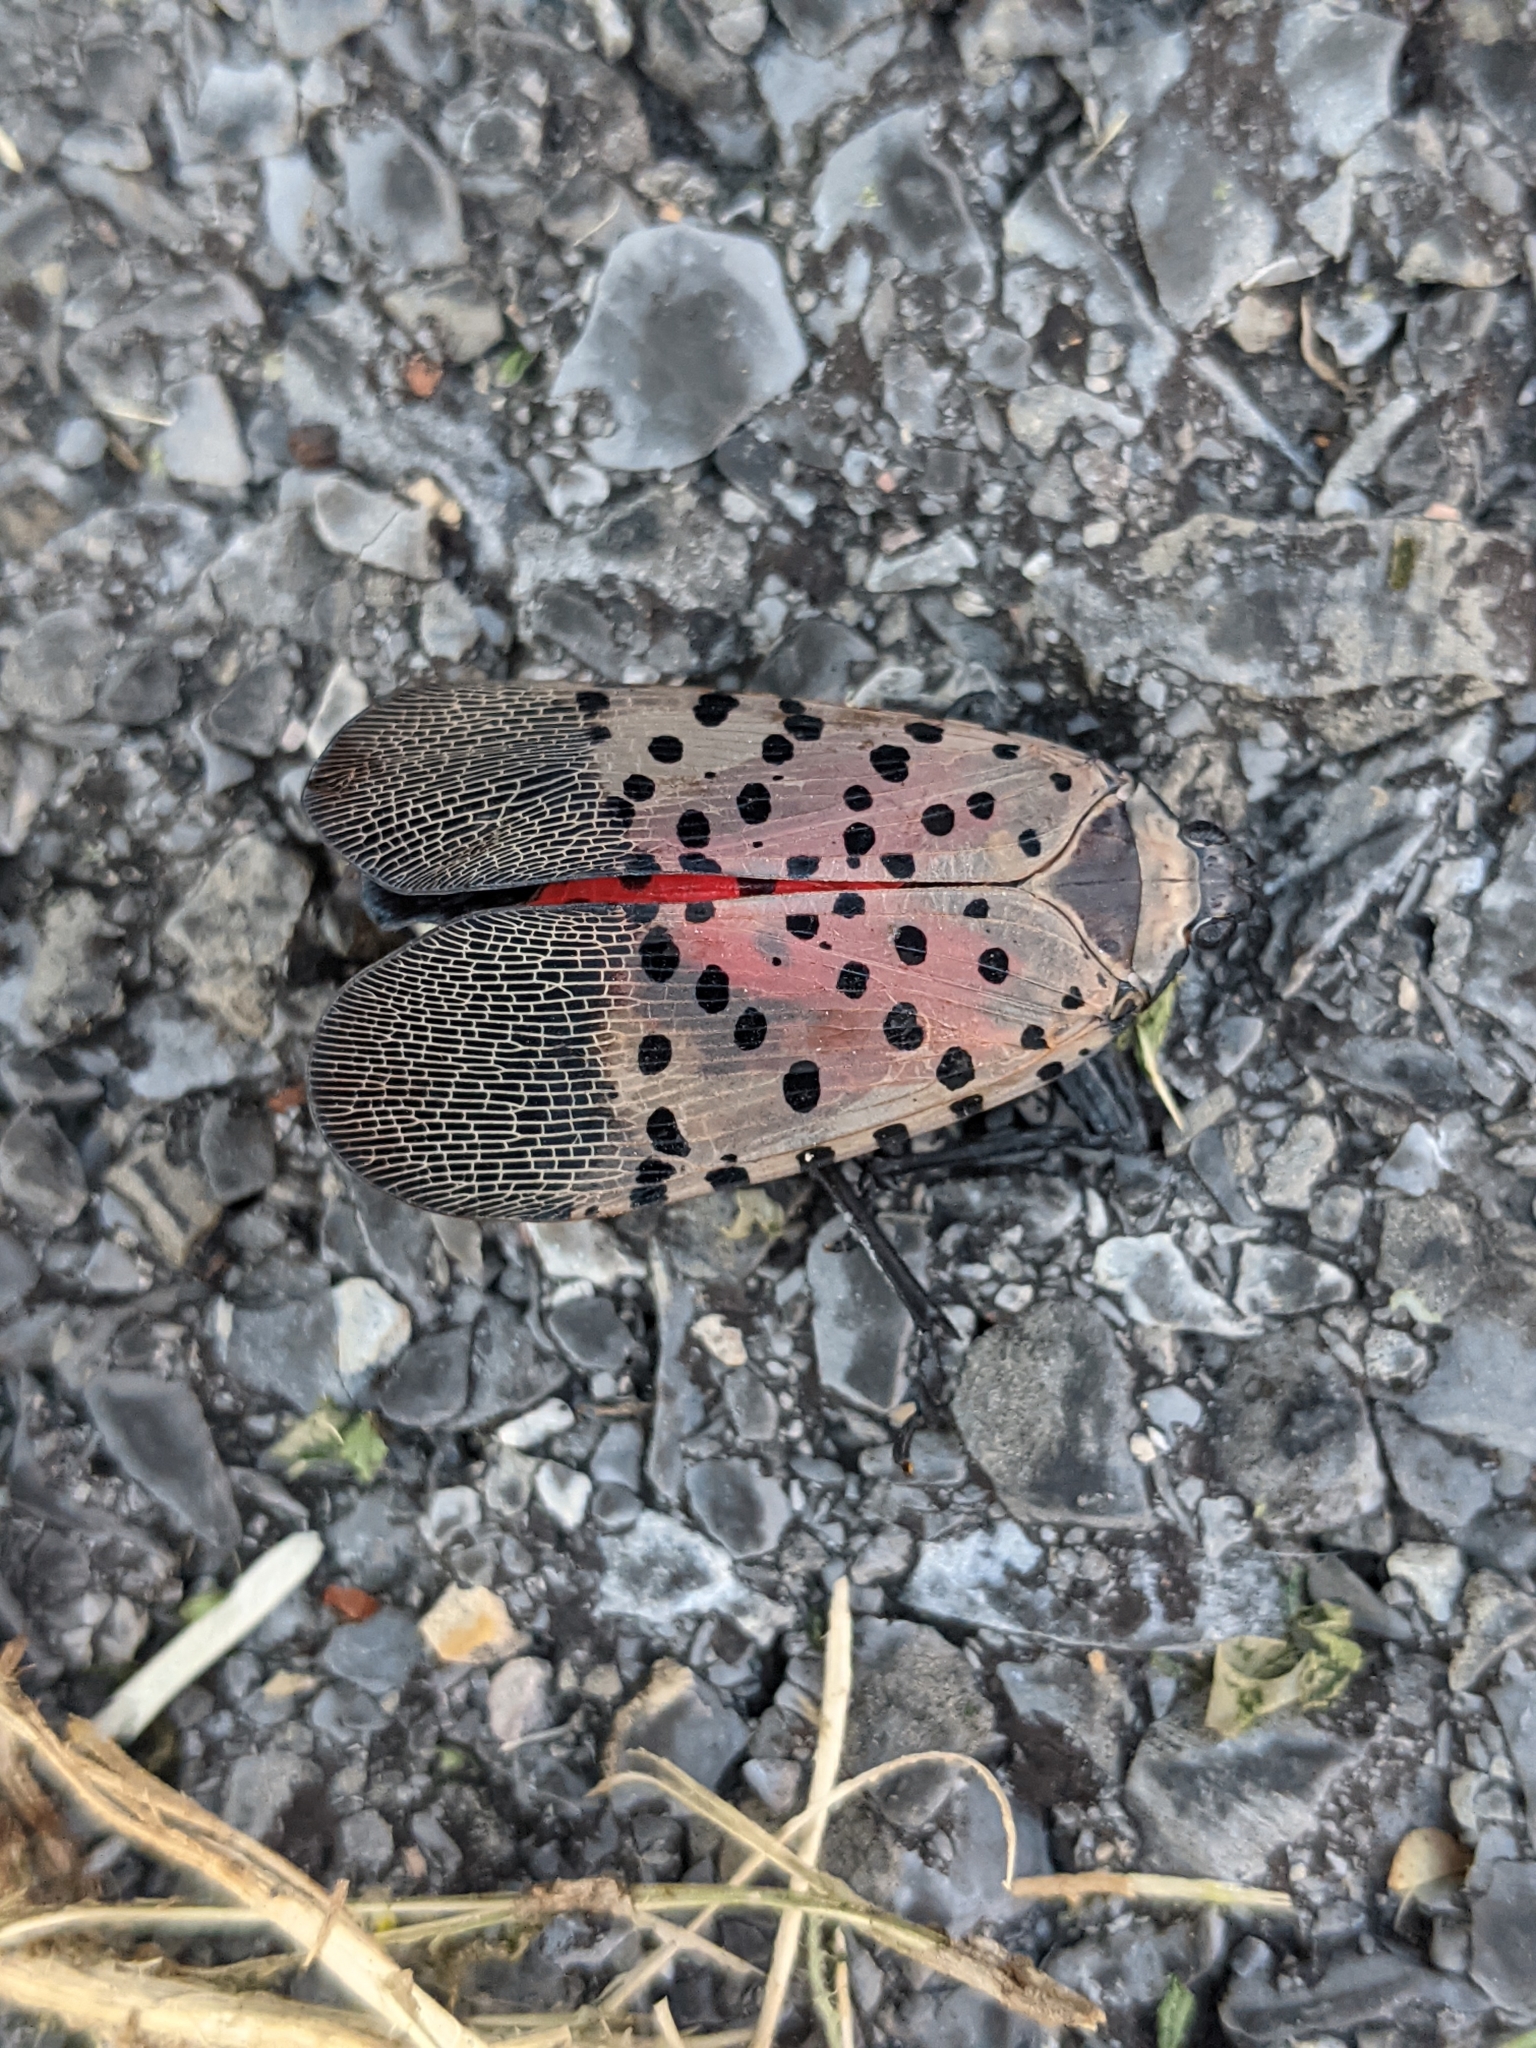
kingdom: Animalia
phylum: Arthropoda
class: Insecta
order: Hemiptera
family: Fulgoridae
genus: Lycorma
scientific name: Lycorma delicatula
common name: Spotted lanternfly
